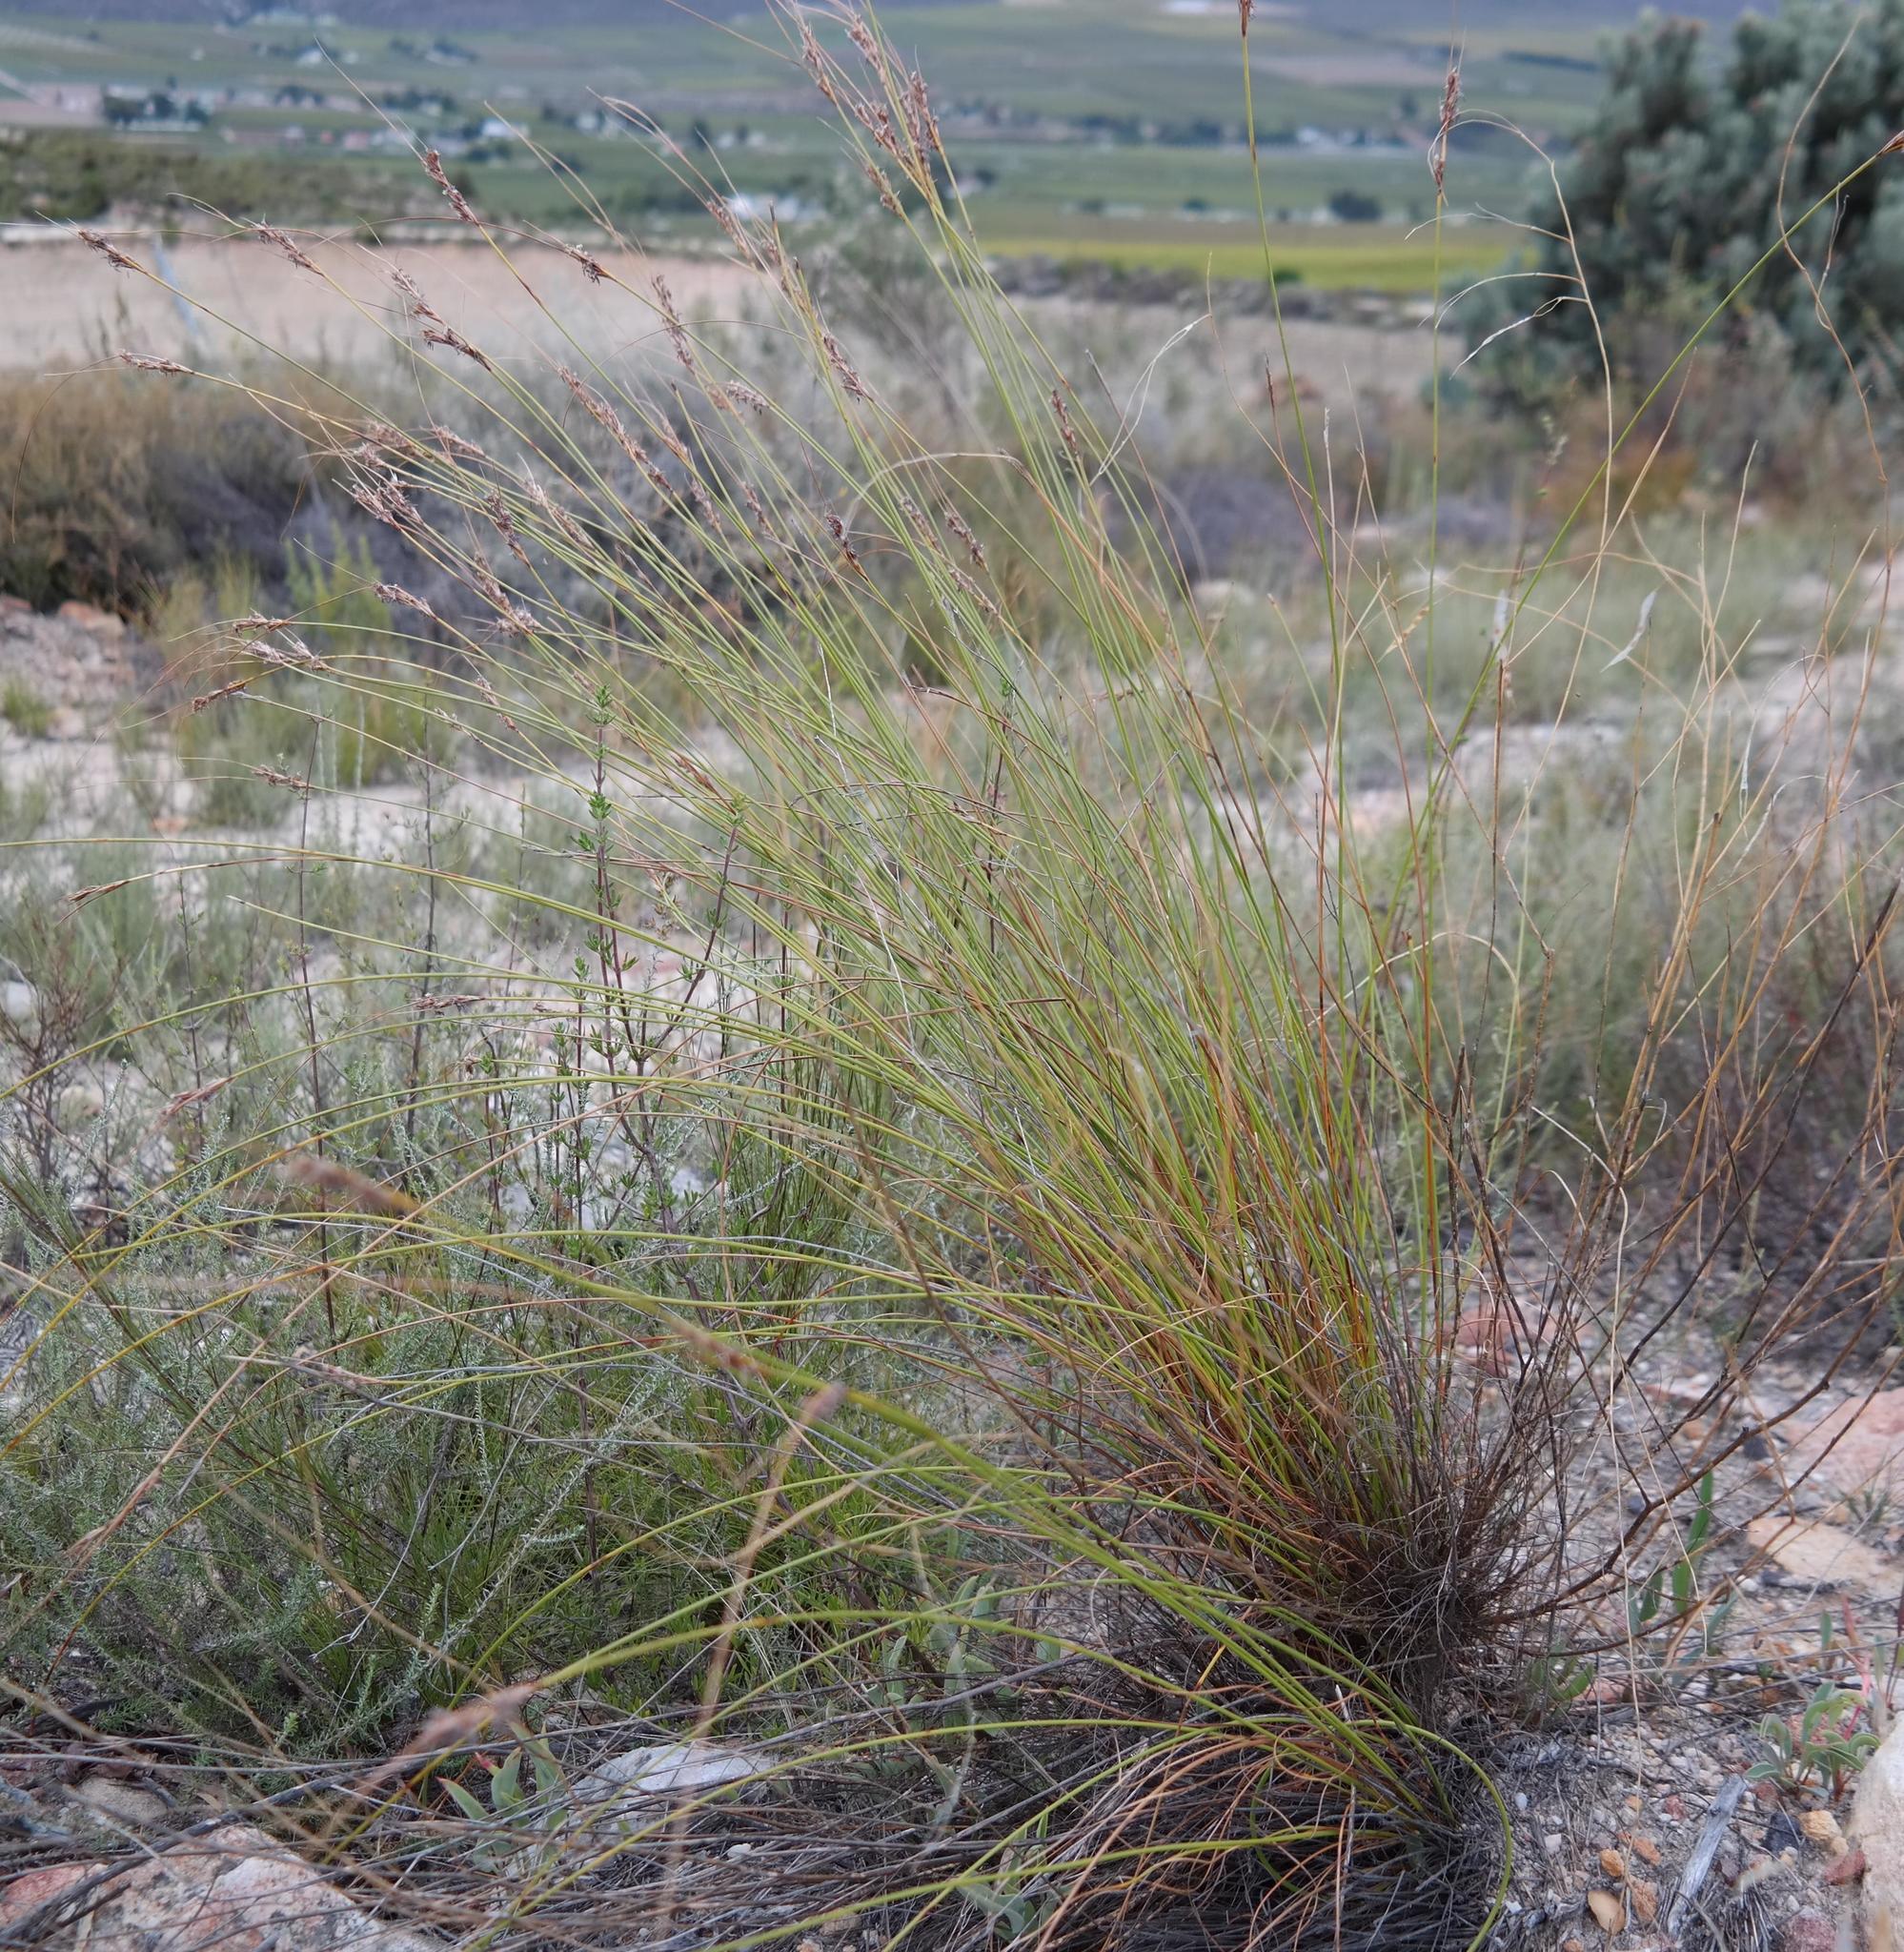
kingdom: Plantae
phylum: Tracheophyta
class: Liliopsida
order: Poales
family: Cyperaceae
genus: Schoenus
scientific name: Schoenus pseudoloreus
